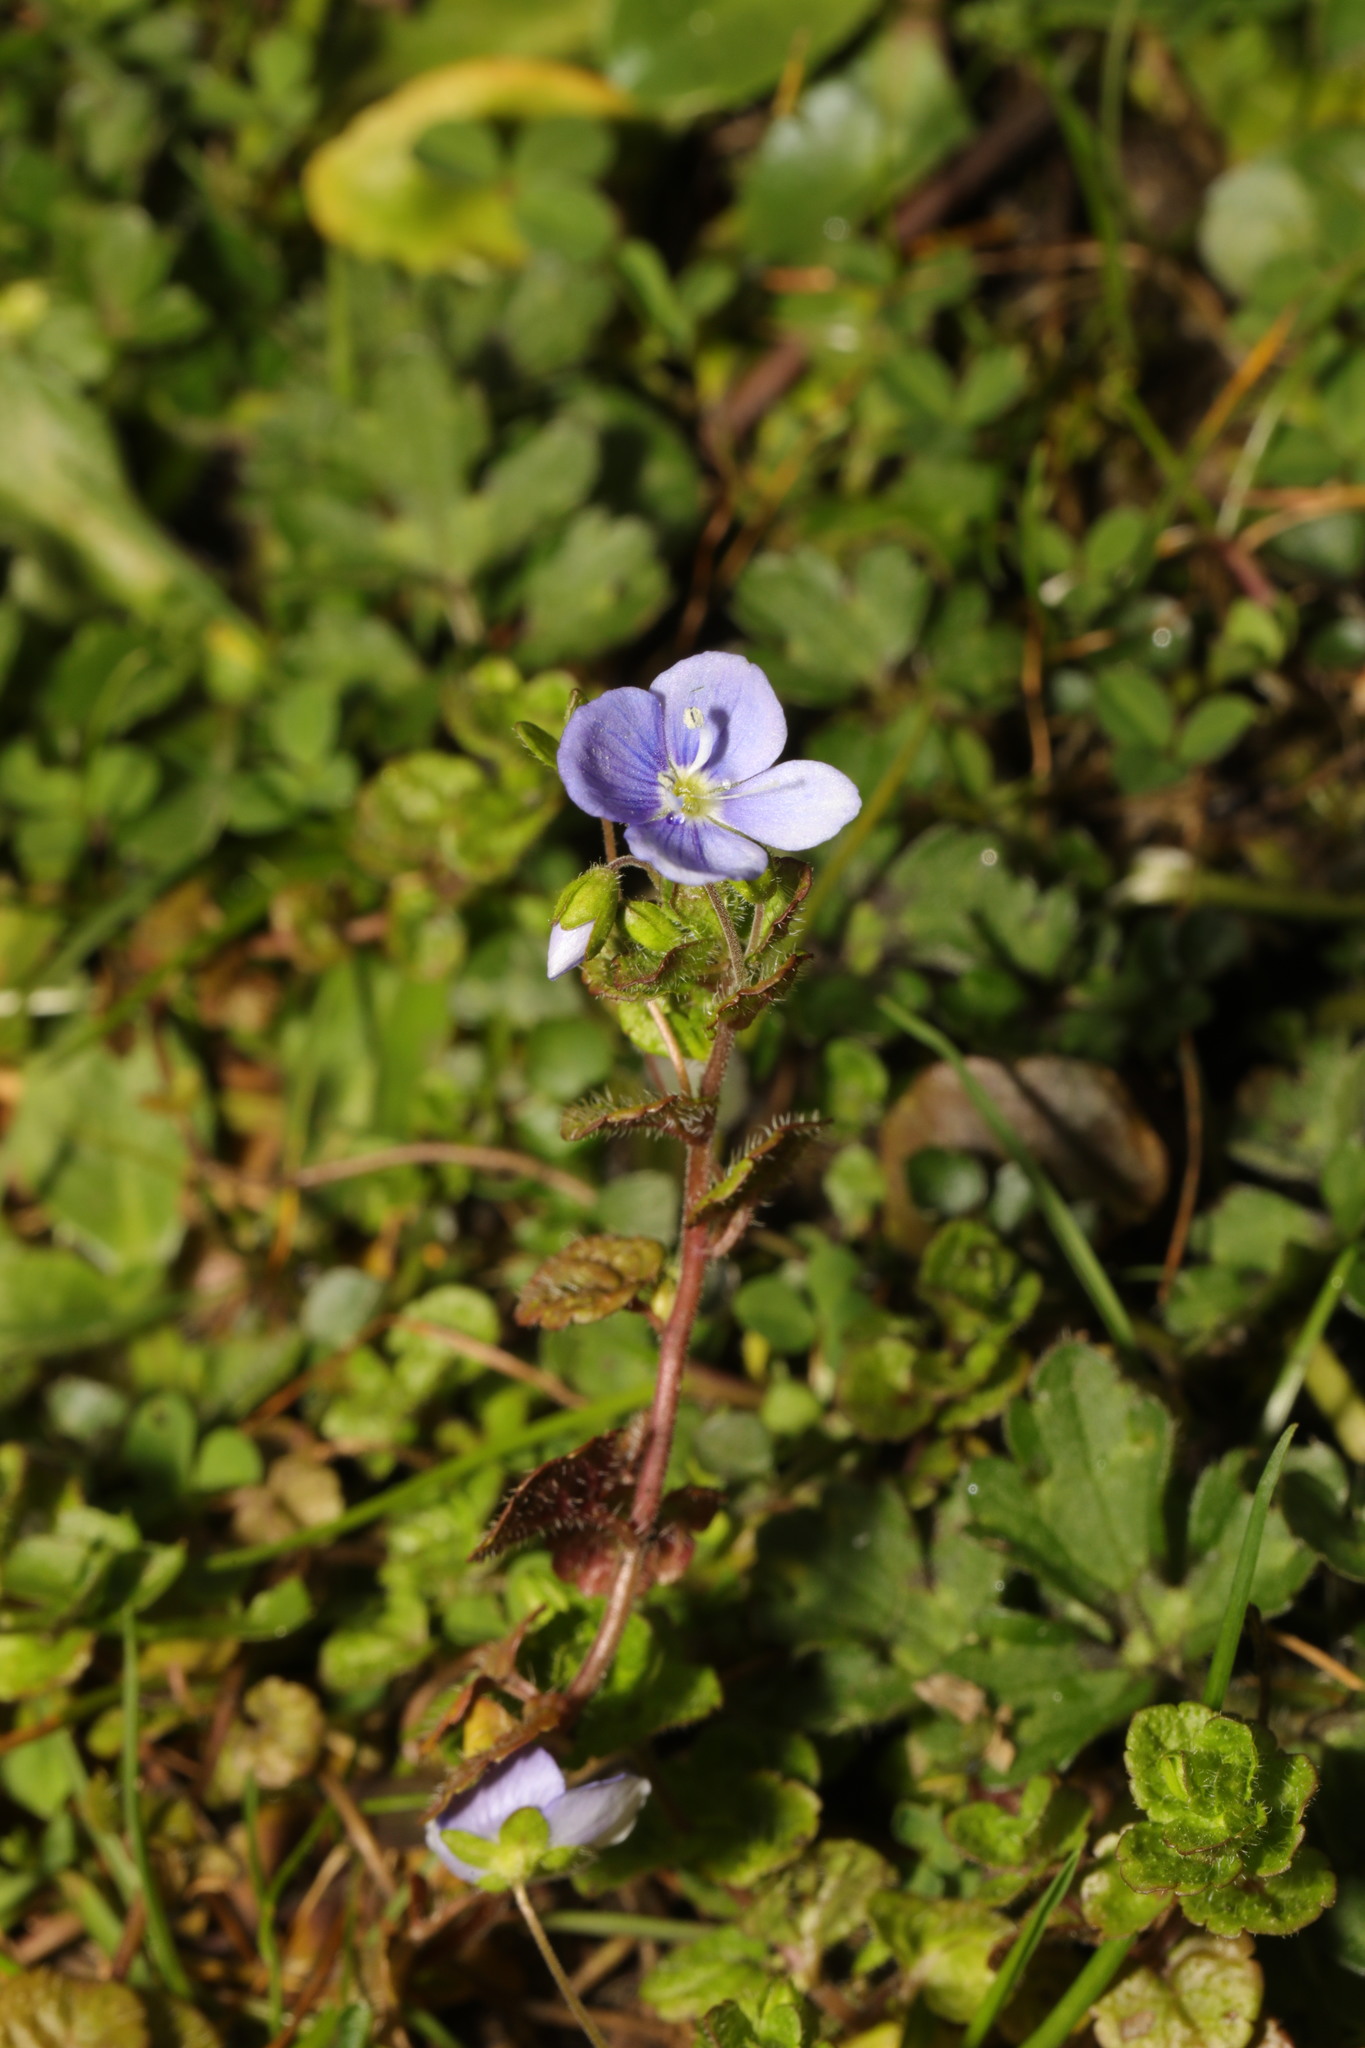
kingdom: Plantae
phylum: Tracheophyta
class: Magnoliopsida
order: Lamiales
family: Plantaginaceae
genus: Veronica
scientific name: Veronica filiformis
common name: Slender speedwell
